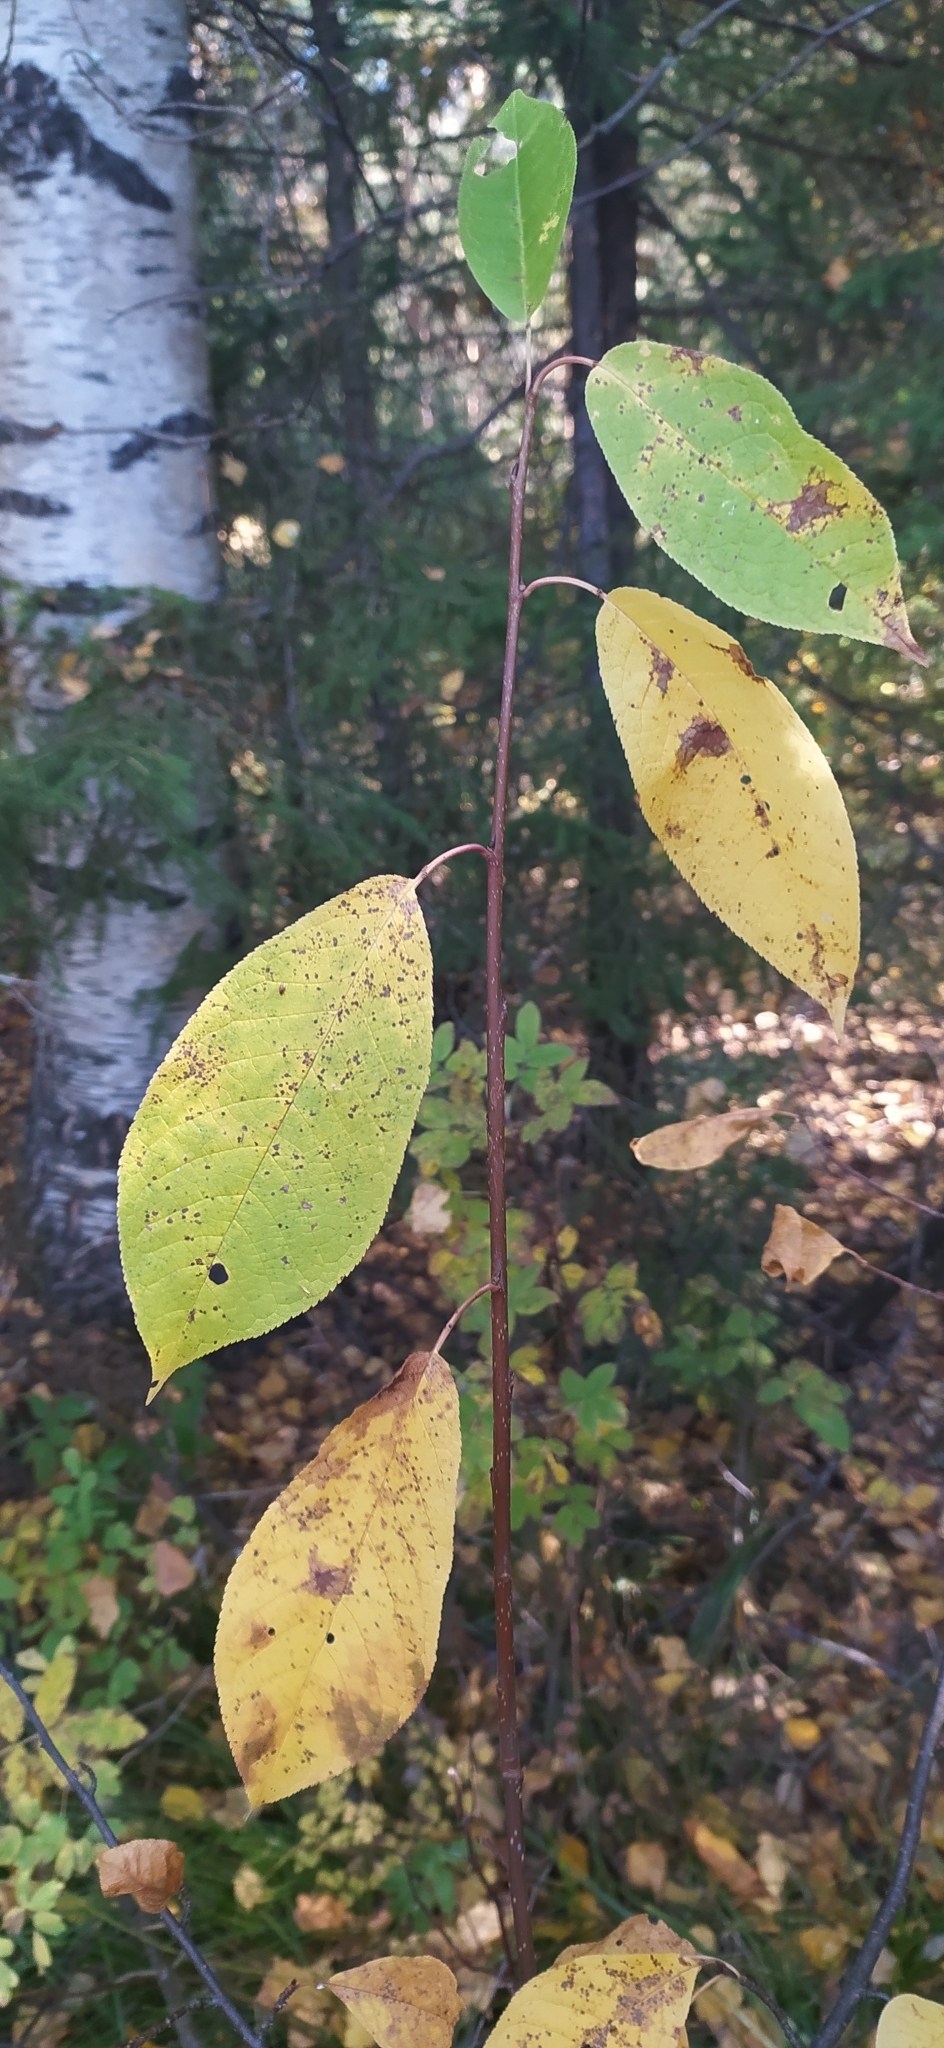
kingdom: Plantae
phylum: Tracheophyta
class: Magnoliopsida
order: Rosales
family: Rosaceae
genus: Prunus
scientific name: Prunus padus
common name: Bird cherry
